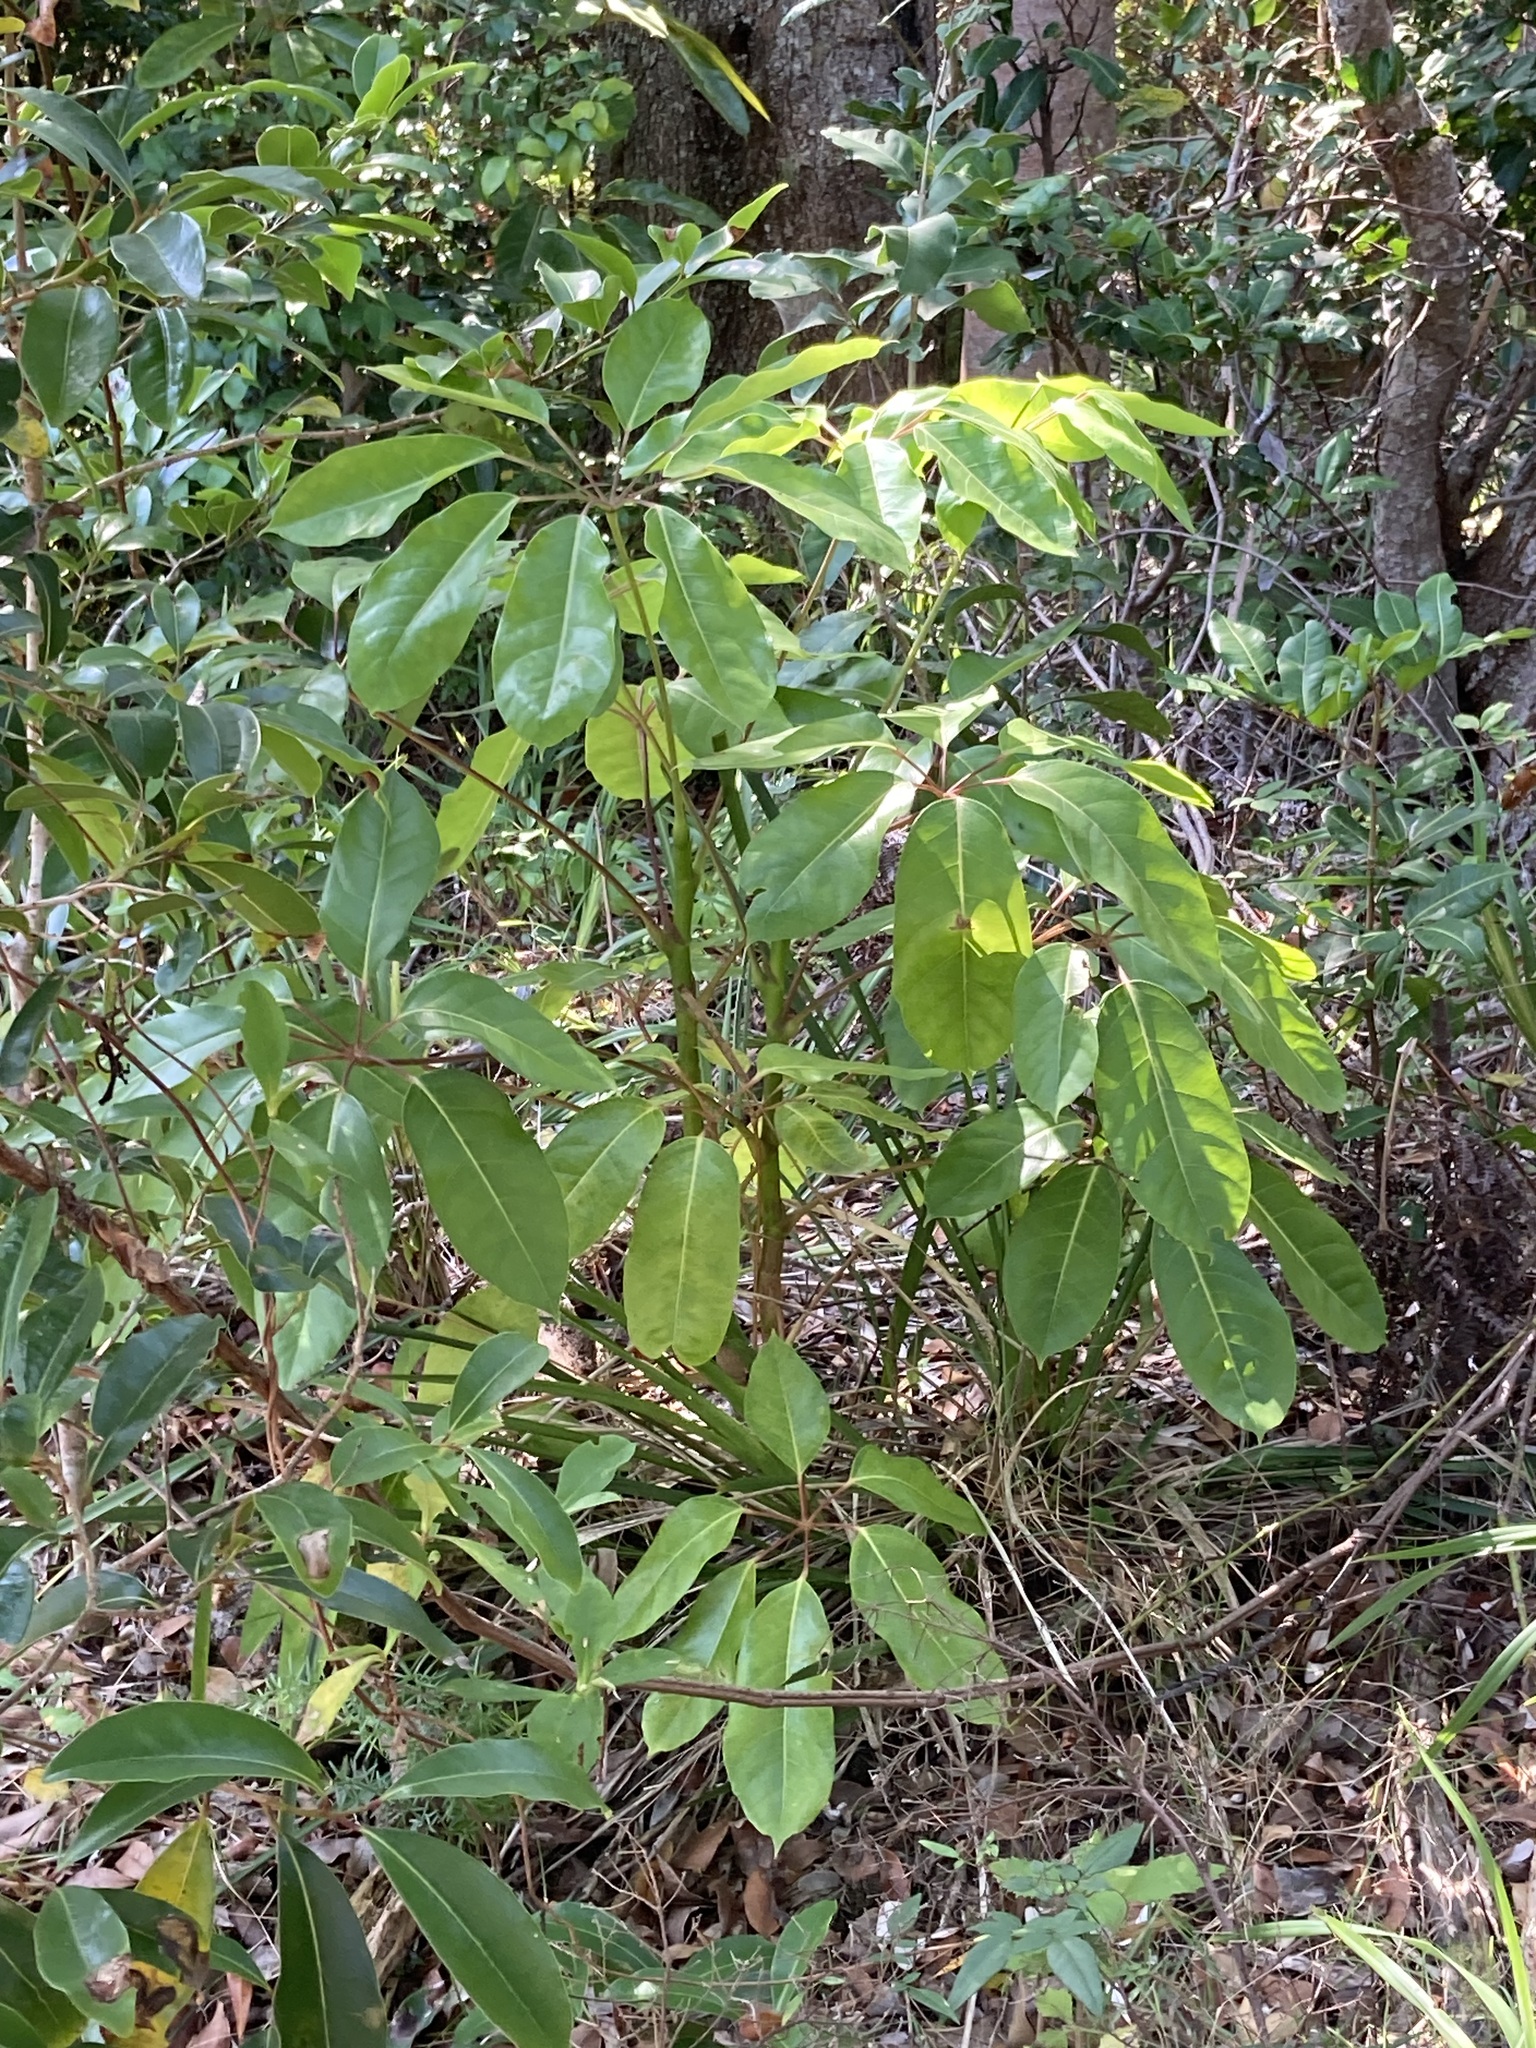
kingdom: Plantae
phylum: Tracheophyta
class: Magnoliopsida
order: Apiales
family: Araliaceae
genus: Heptapleurum
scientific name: Heptapleurum actinophyllum
